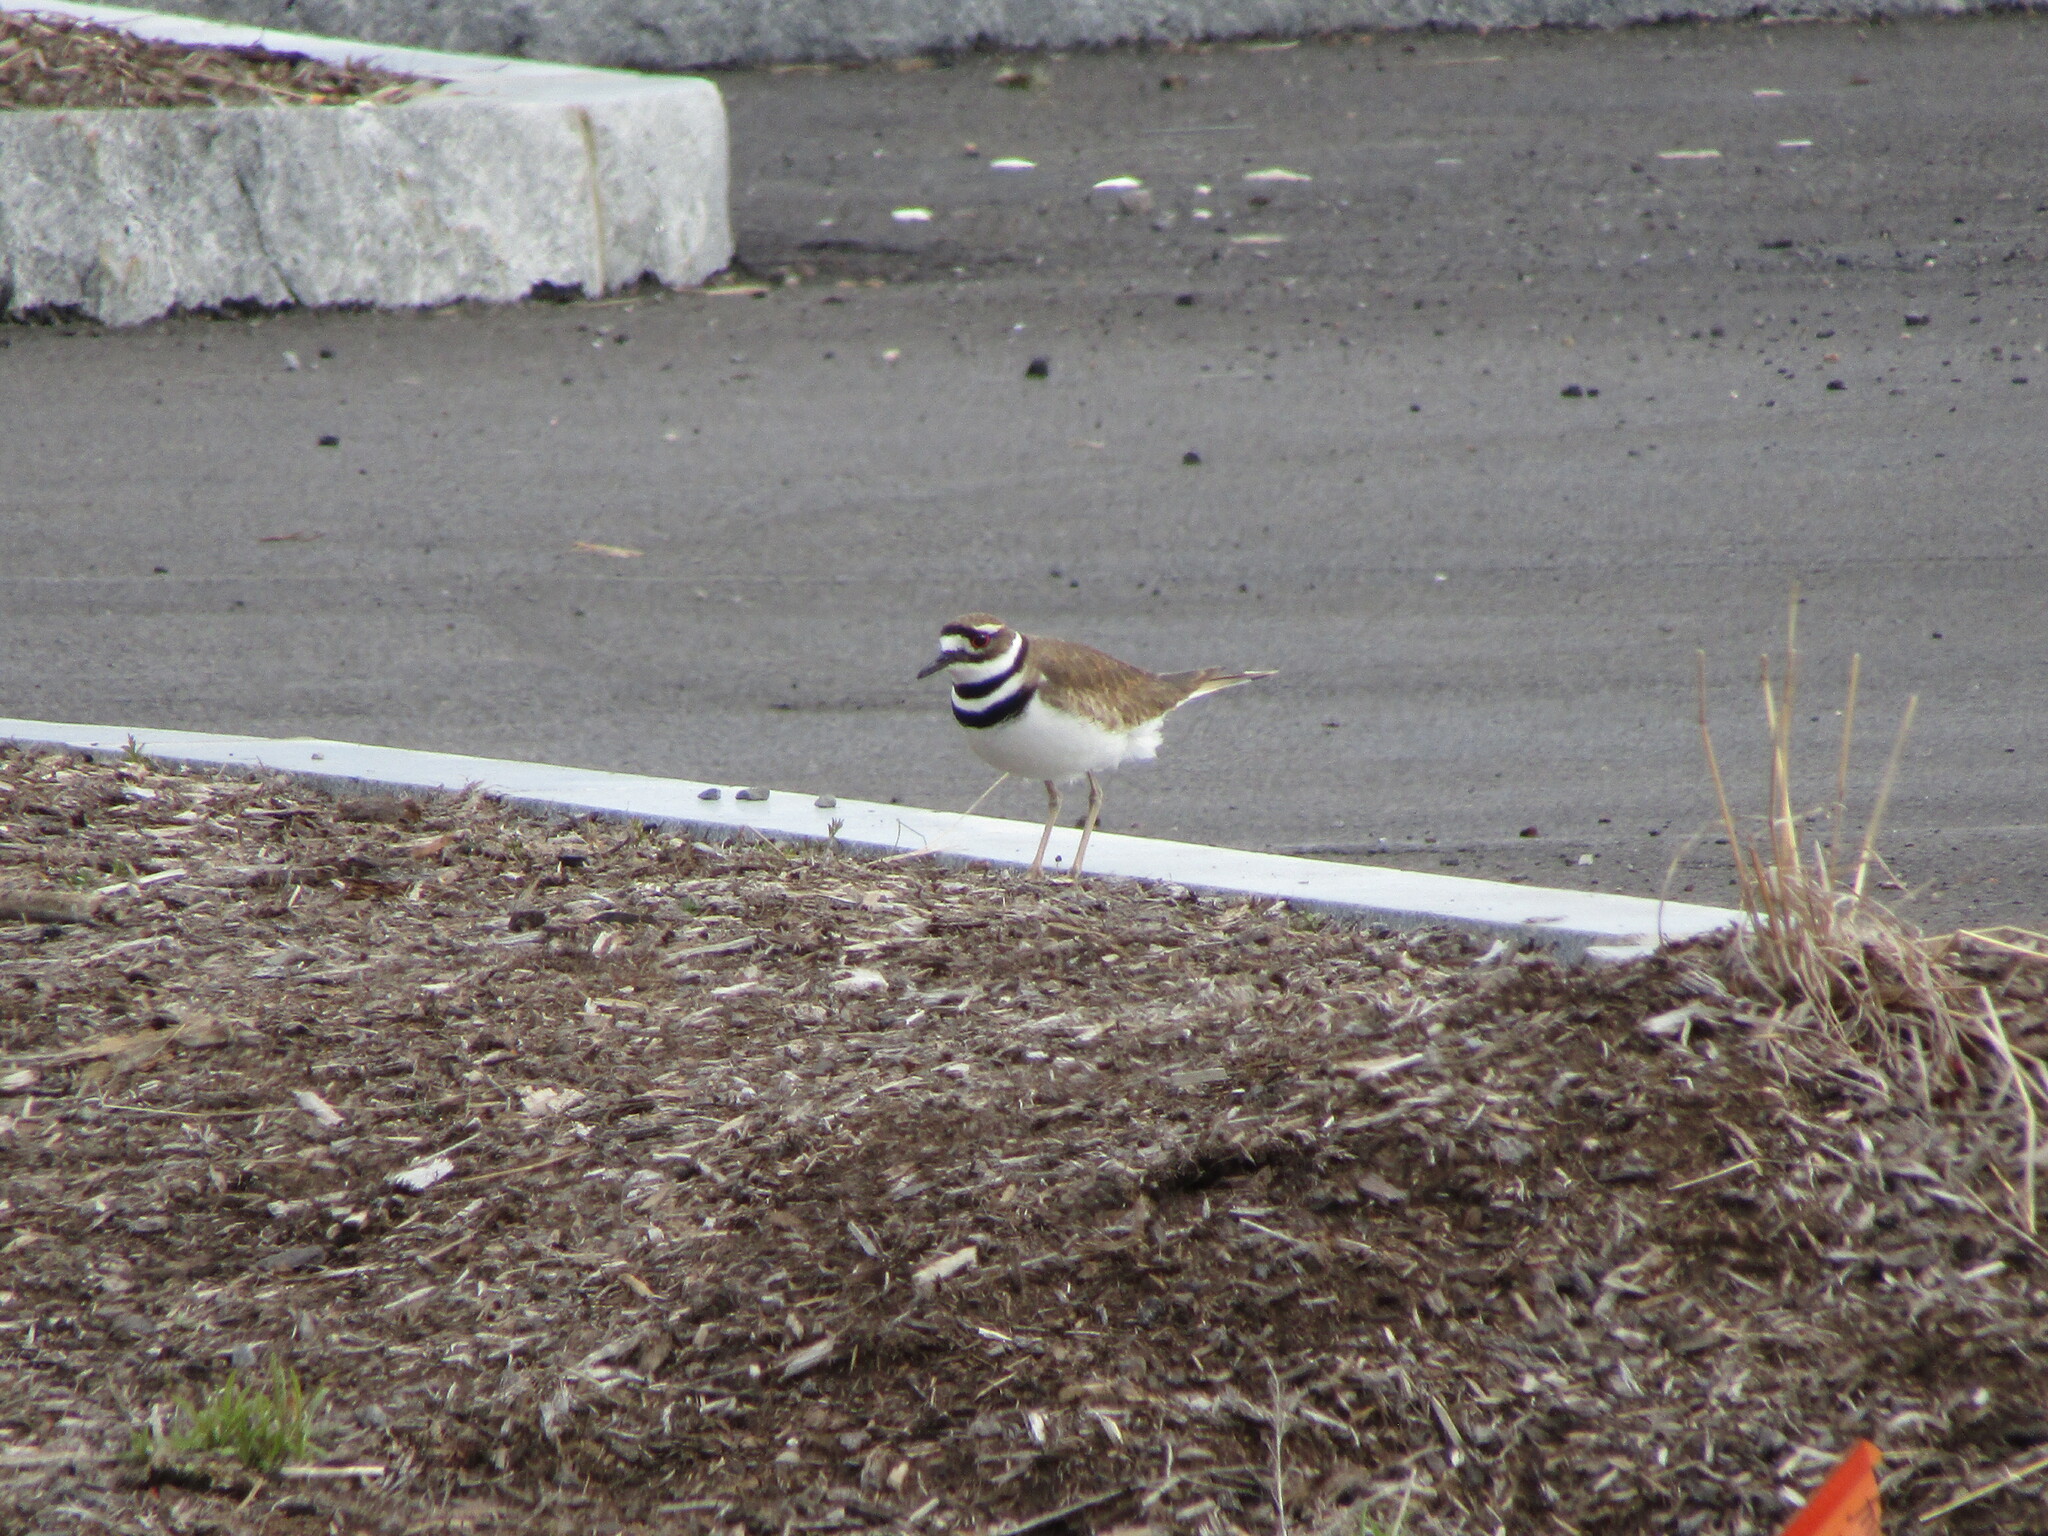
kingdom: Animalia
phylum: Chordata
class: Aves
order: Charadriiformes
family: Charadriidae
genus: Charadrius
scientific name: Charadrius vociferus
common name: Killdeer
